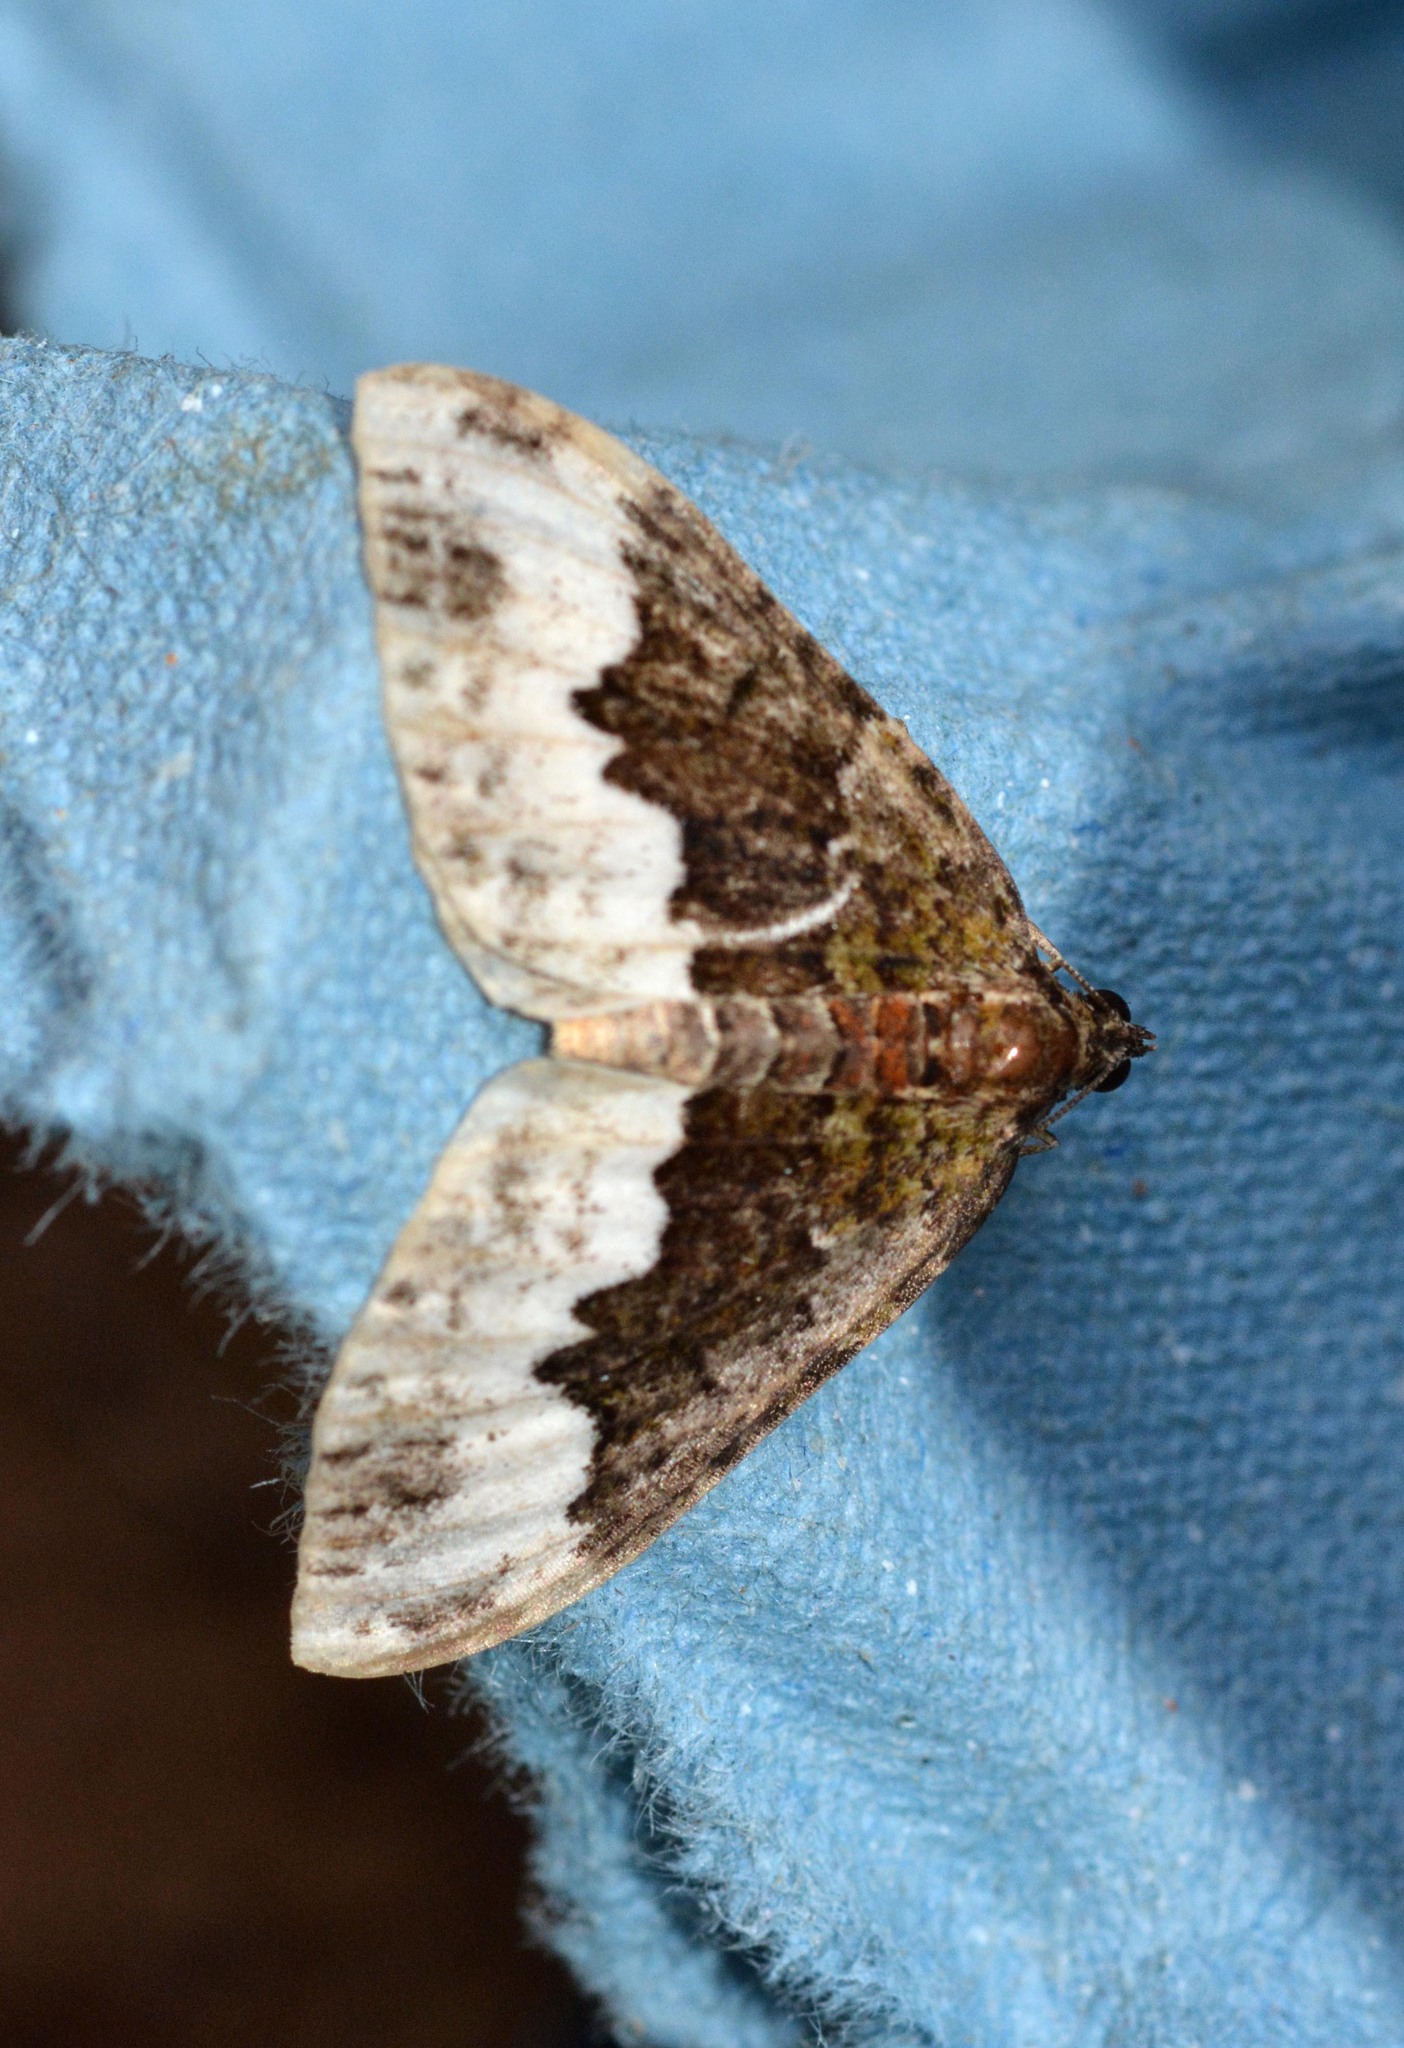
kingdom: Animalia
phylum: Arthropoda
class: Insecta
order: Lepidoptera
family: Geometridae
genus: Euphyia
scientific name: Euphyia biangulata
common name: Cloaked carpet
